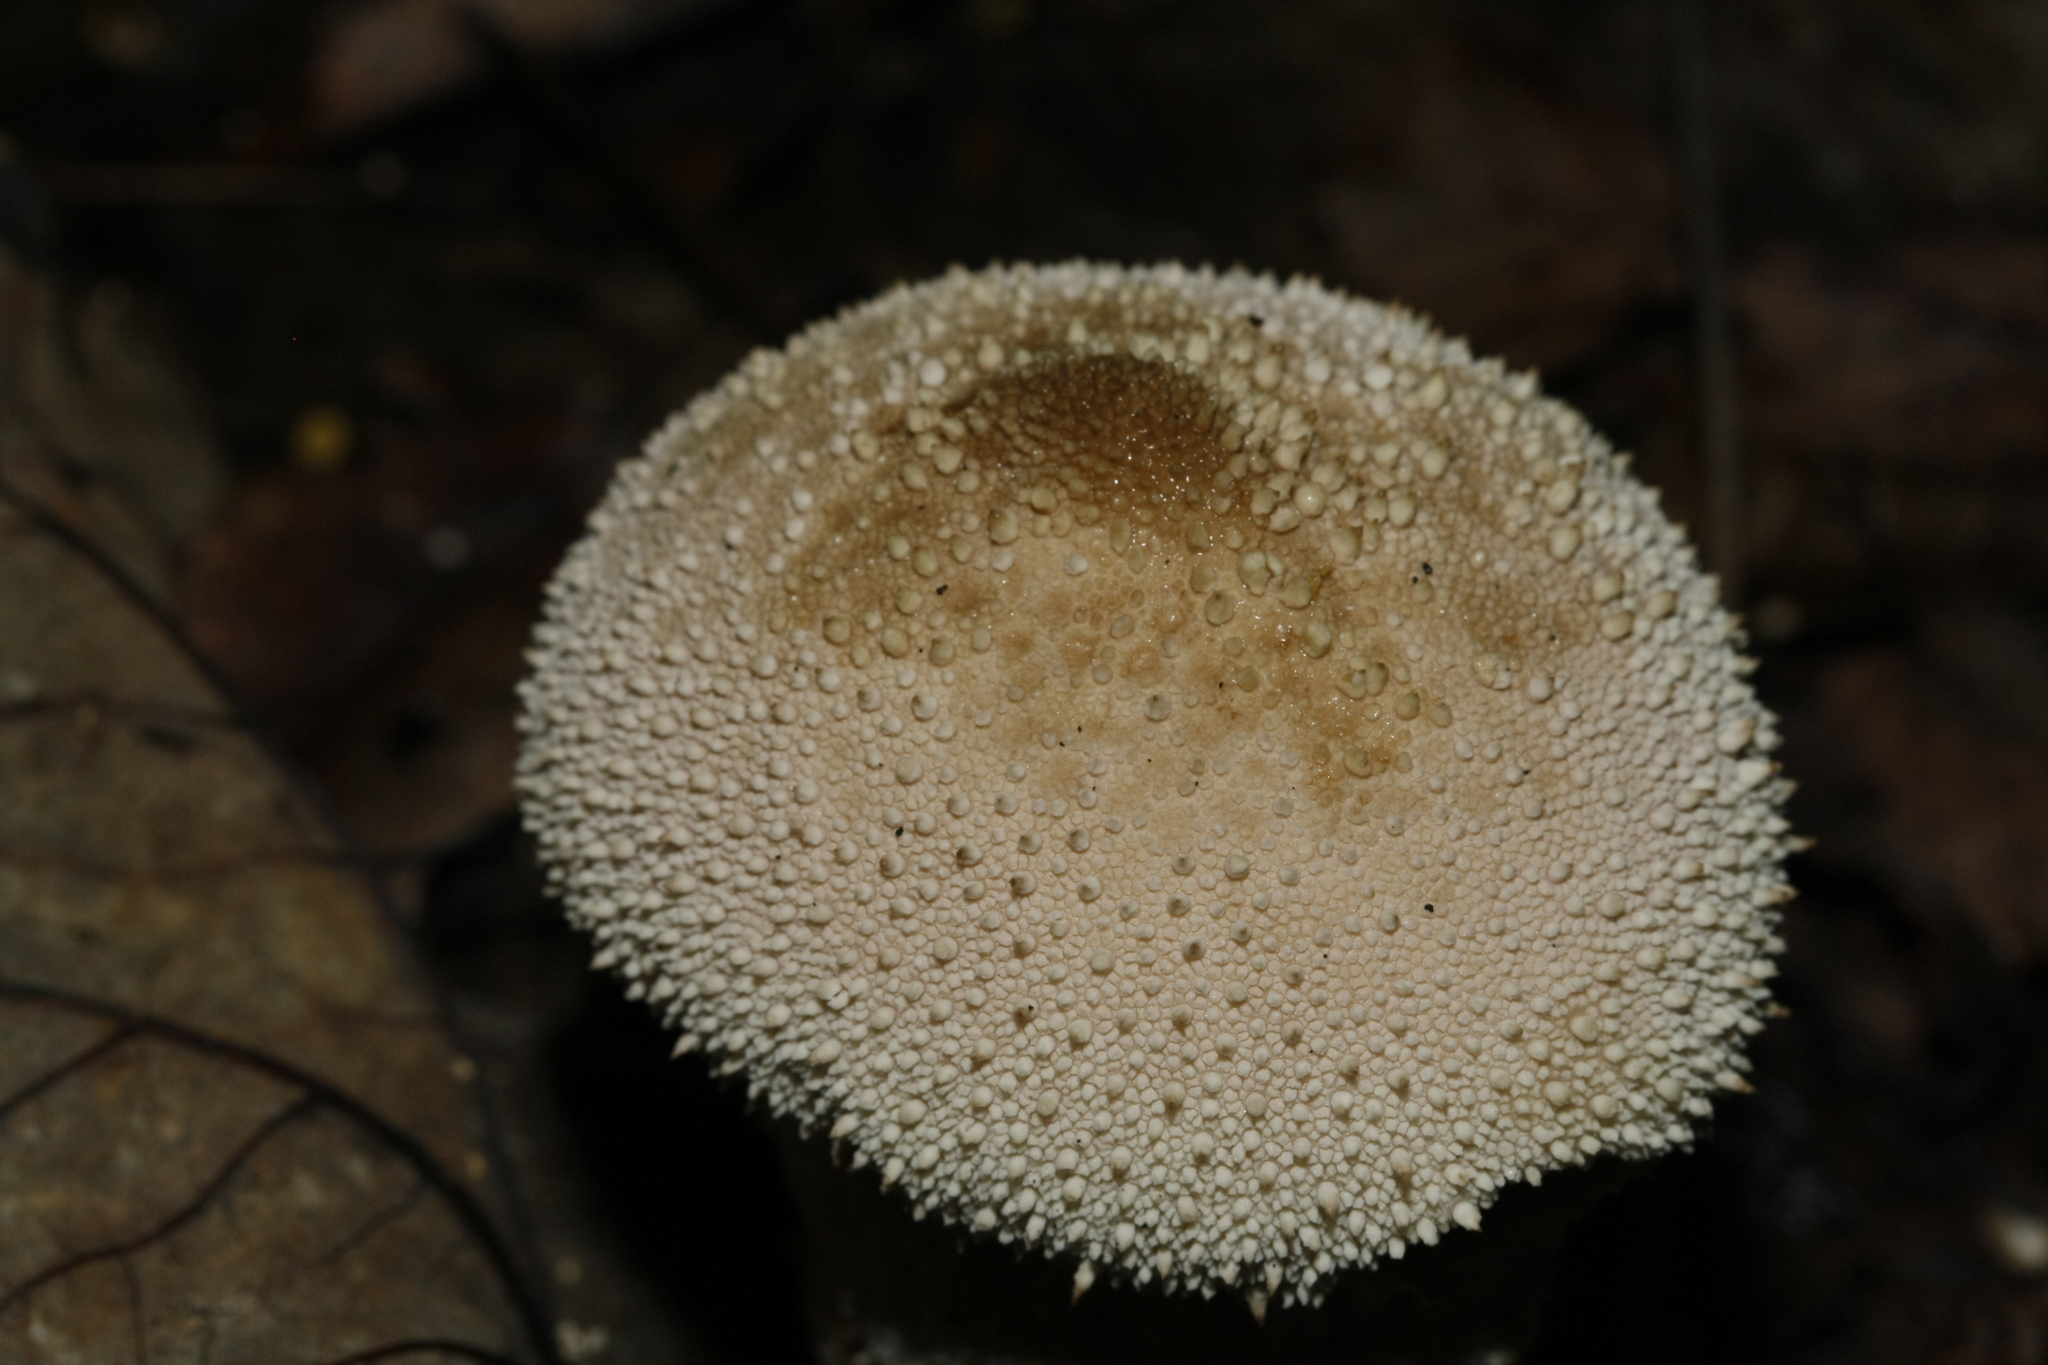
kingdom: Fungi
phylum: Basidiomycota
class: Agaricomycetes
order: Agaricales
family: Lycoperdaceae
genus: Lycoperdon
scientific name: Lycoperdon perlatum
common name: Common puffball
